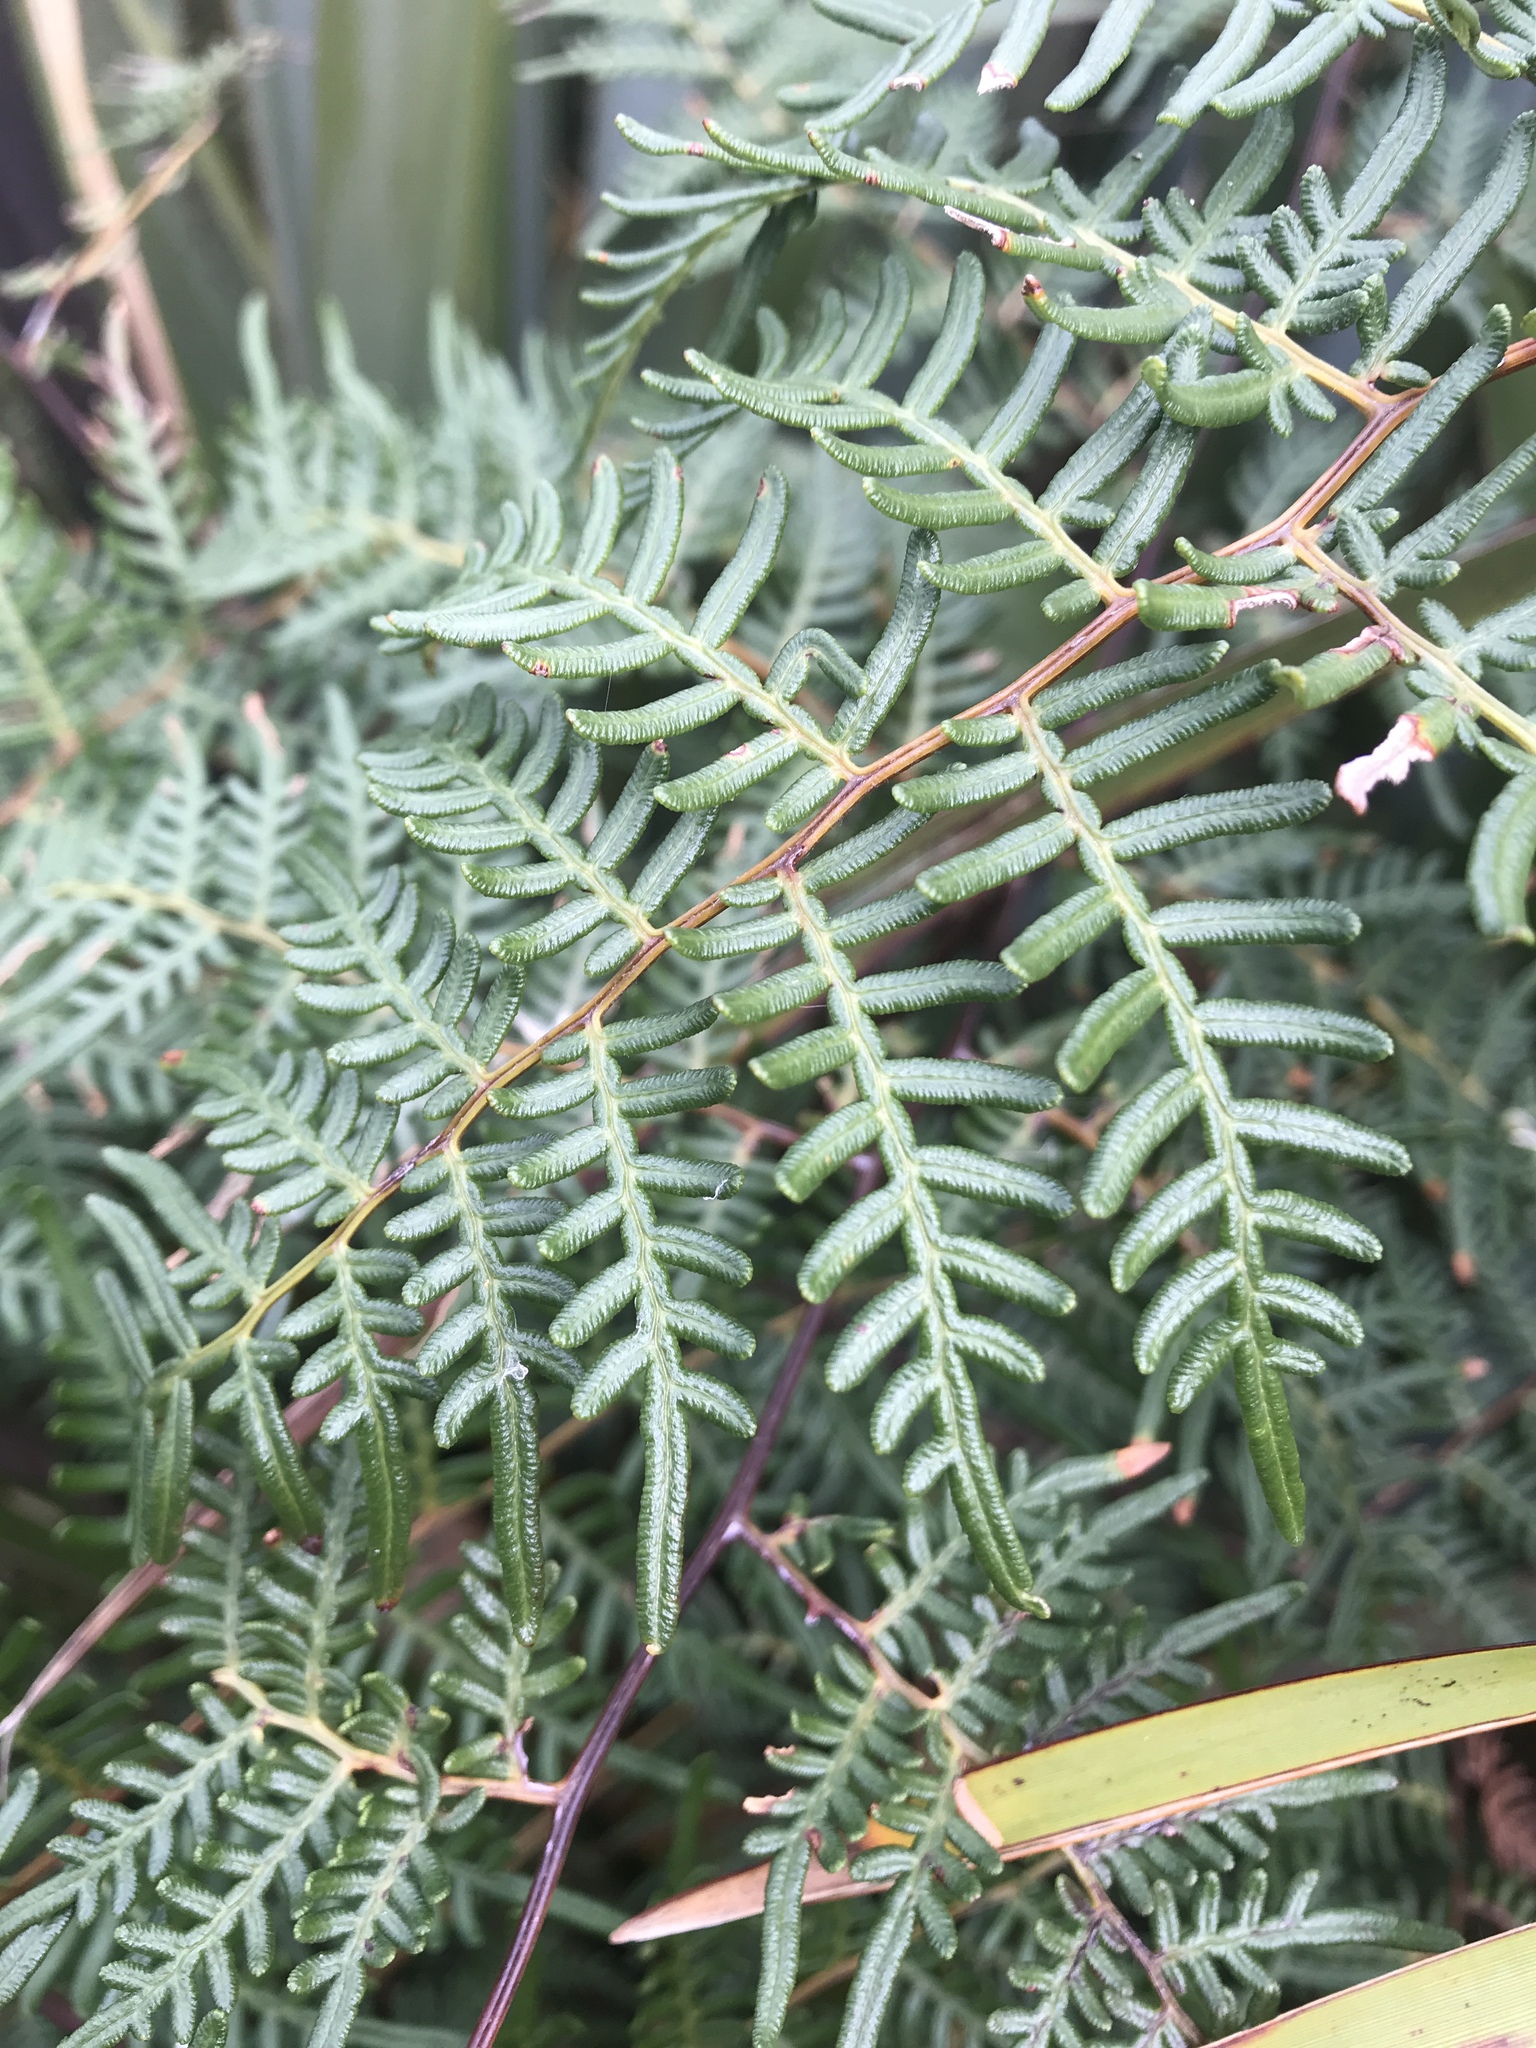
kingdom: Plantae
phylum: Tracheophyta
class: Polypodiopsida
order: Polypodiales
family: Dennstaedtiaceae
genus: Pteridium
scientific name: Pteridium esculentum
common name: Bracken fern
